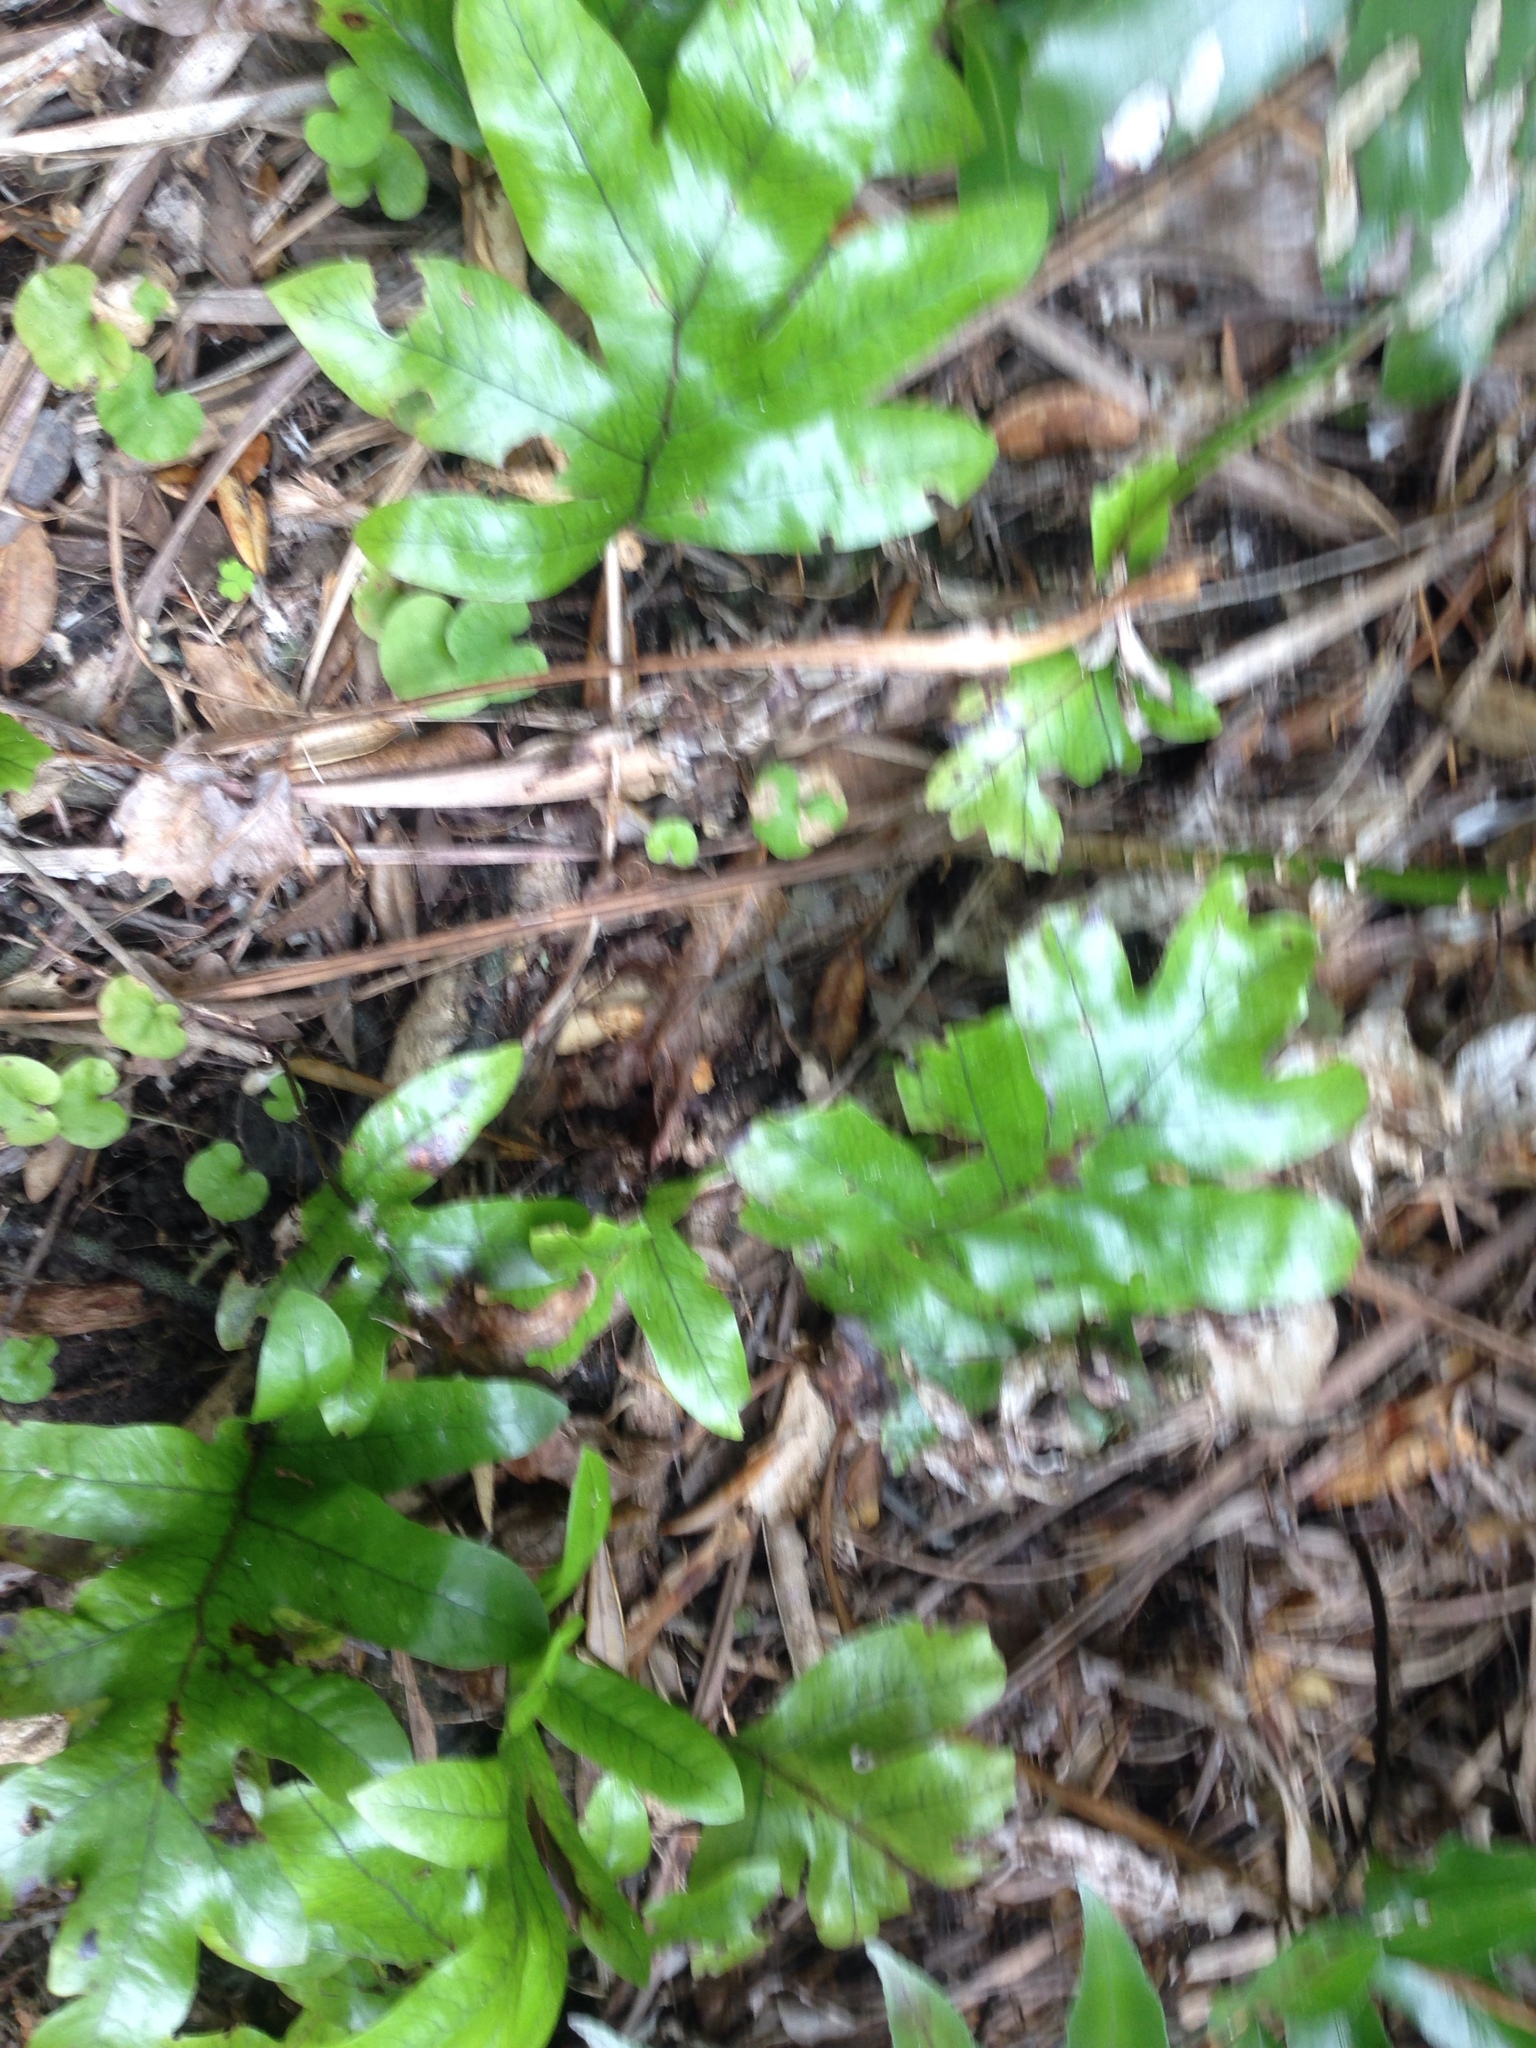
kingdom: Plantae
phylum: Tracheophyta
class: Polypodiopsida
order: Polypodiales
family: Polypodiaceae
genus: Lecanopteris
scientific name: Lecanopteris pustulata
